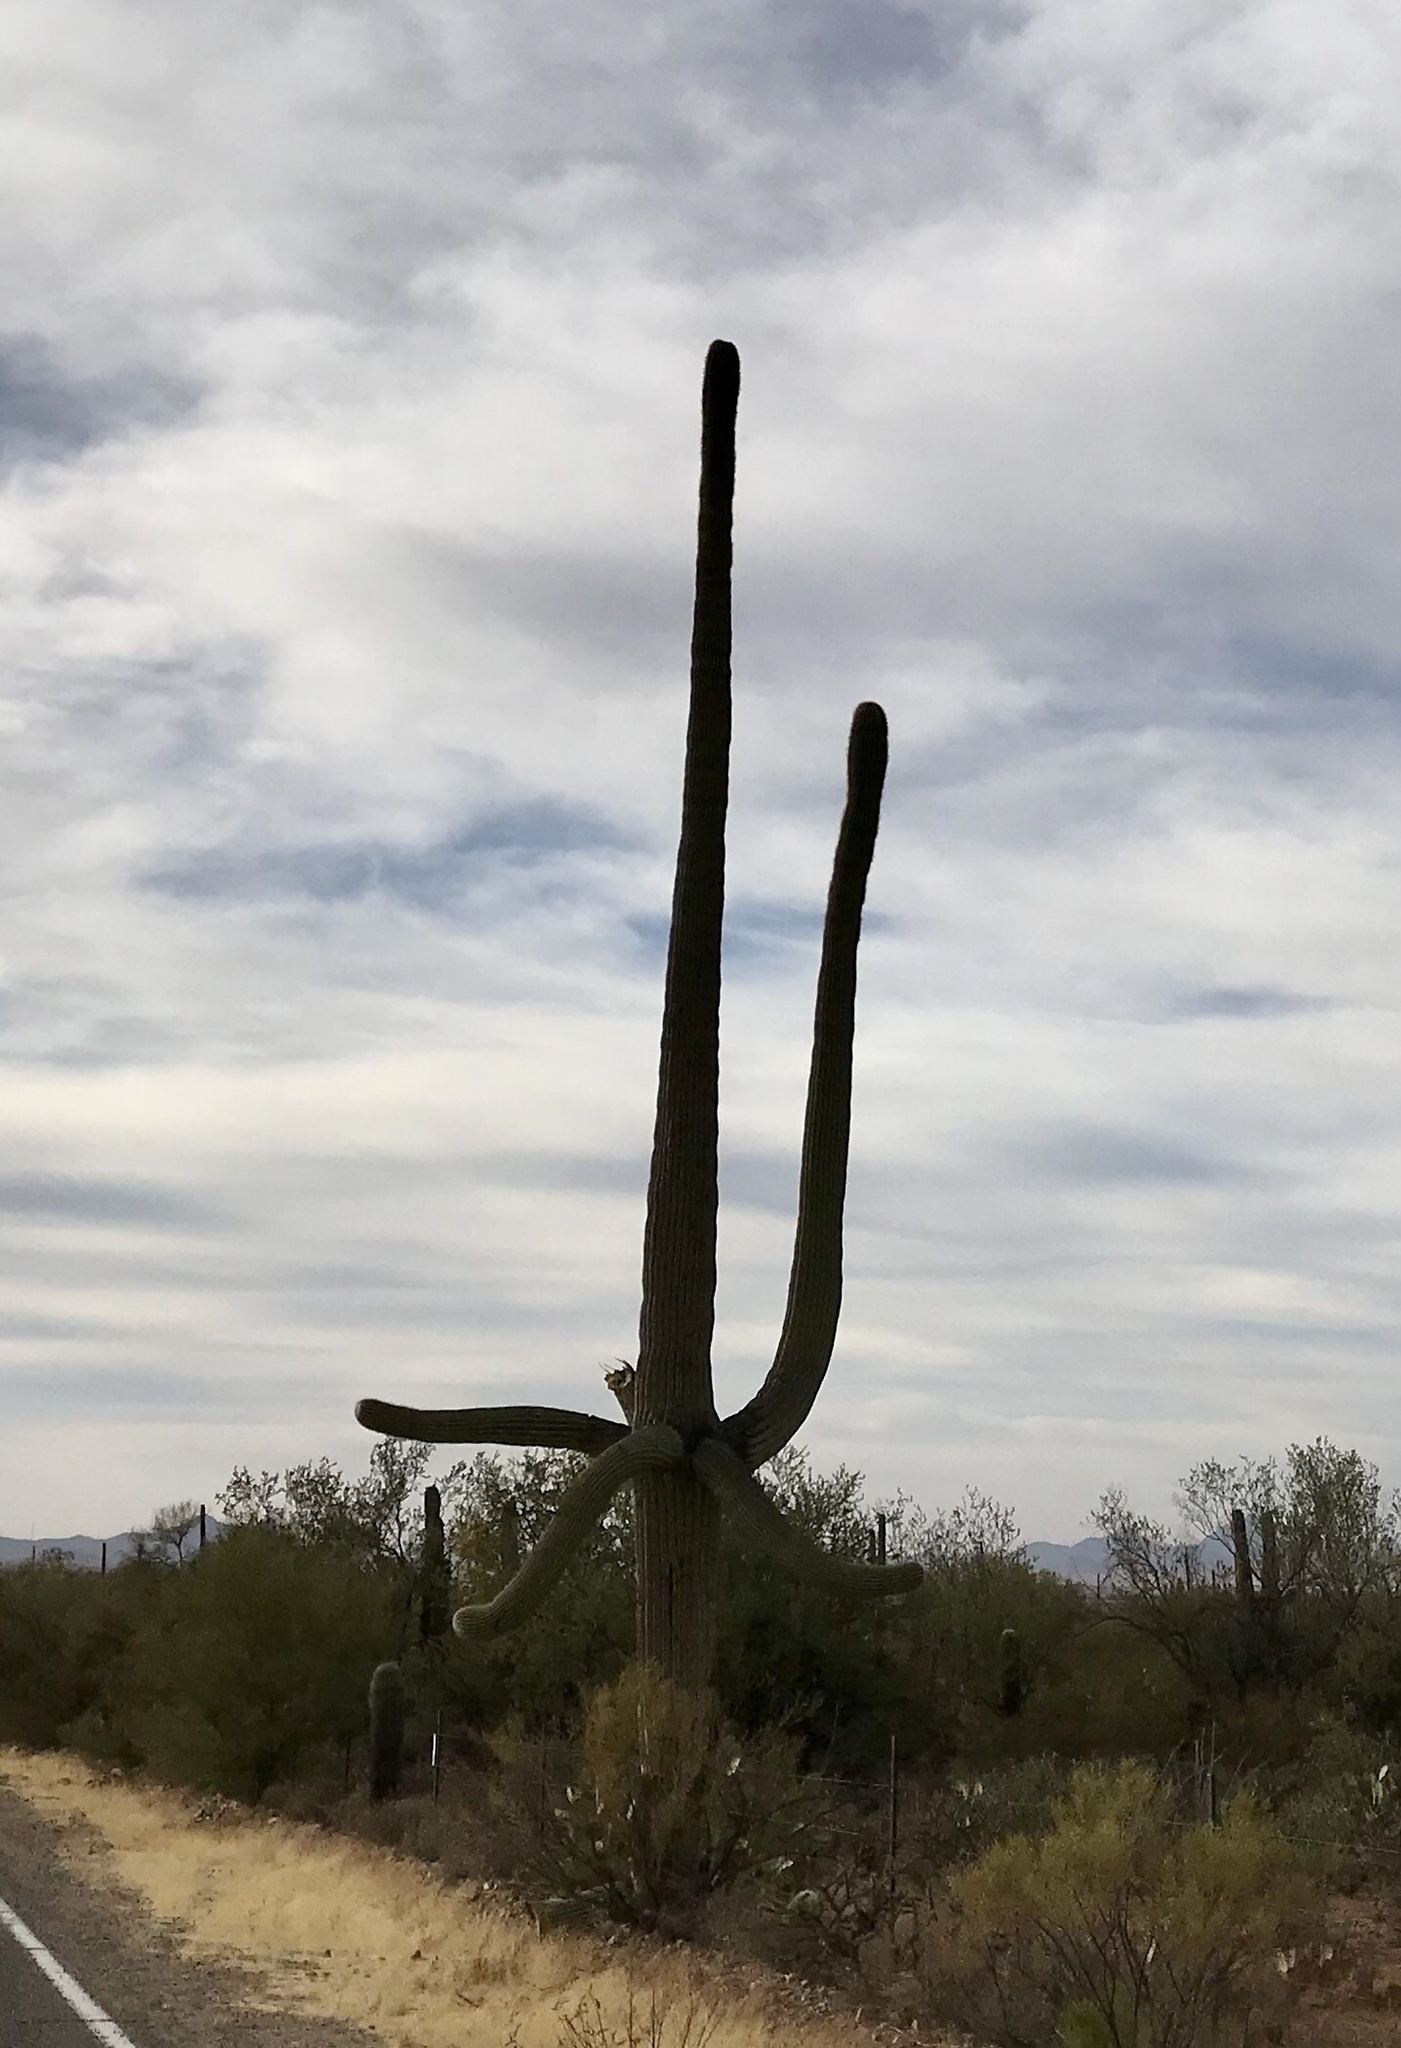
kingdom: Plantae
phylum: Tracheophyta
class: Magnoliopsida
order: Caryophyllales
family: Cactaceae
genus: Carnegiea
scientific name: Carnegiea gigantea
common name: Saguaro
